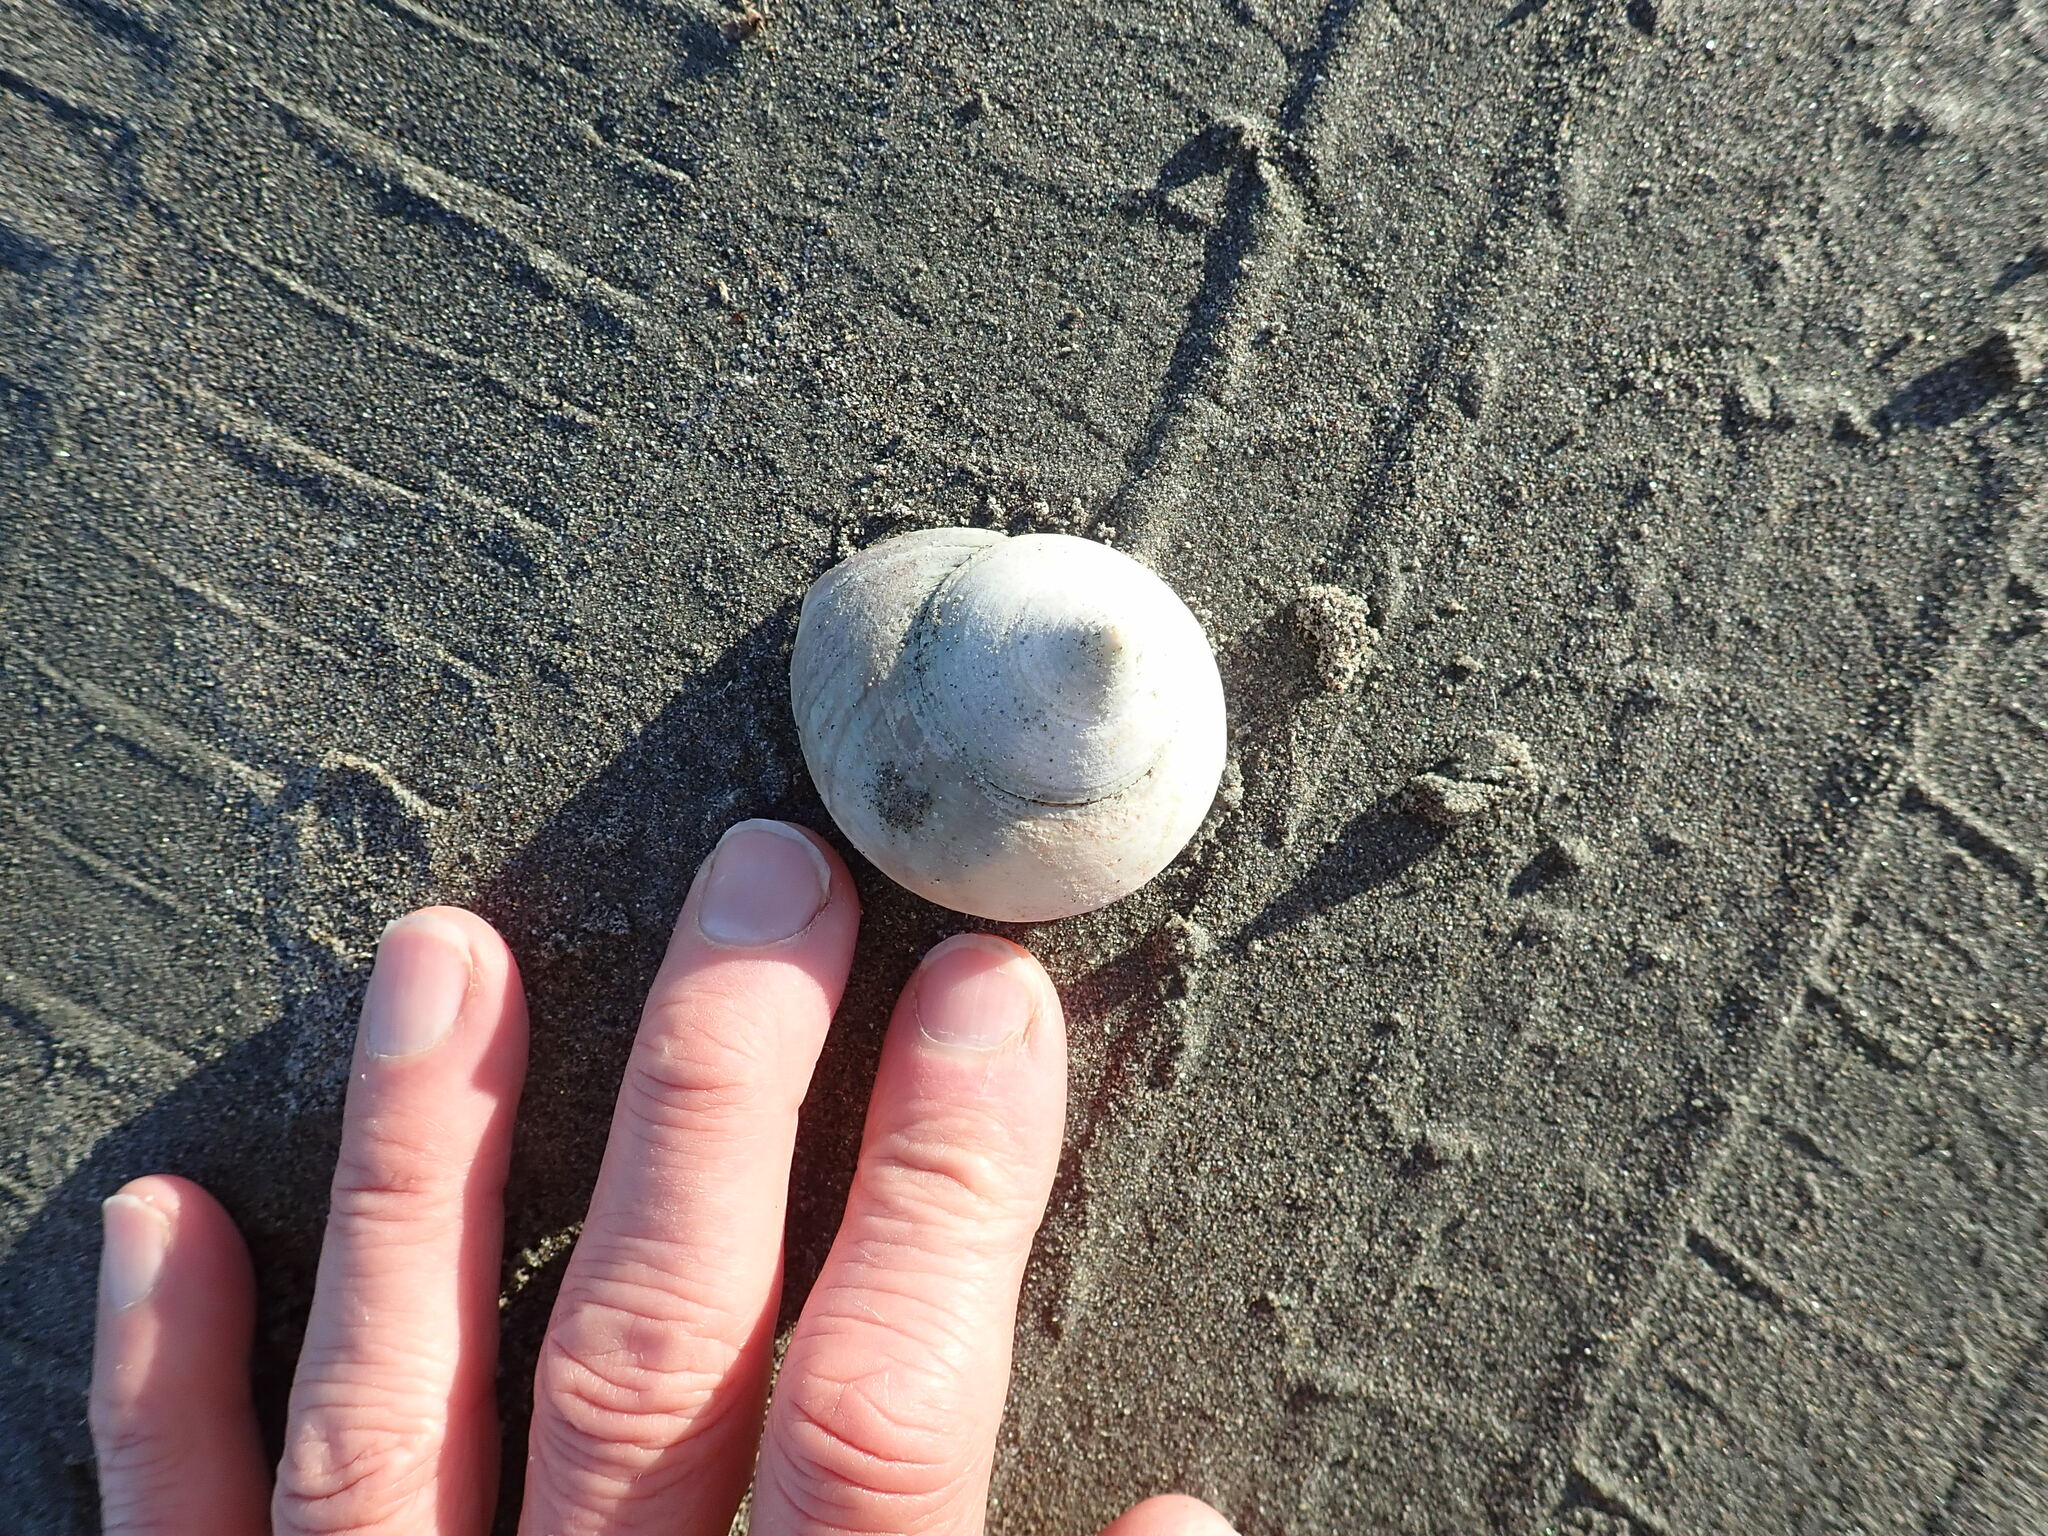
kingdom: Animalia
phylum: Mollusca
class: Gastropoda
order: Trochida
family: Calliostomatidae
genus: Maurea
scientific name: Maurea selecta
